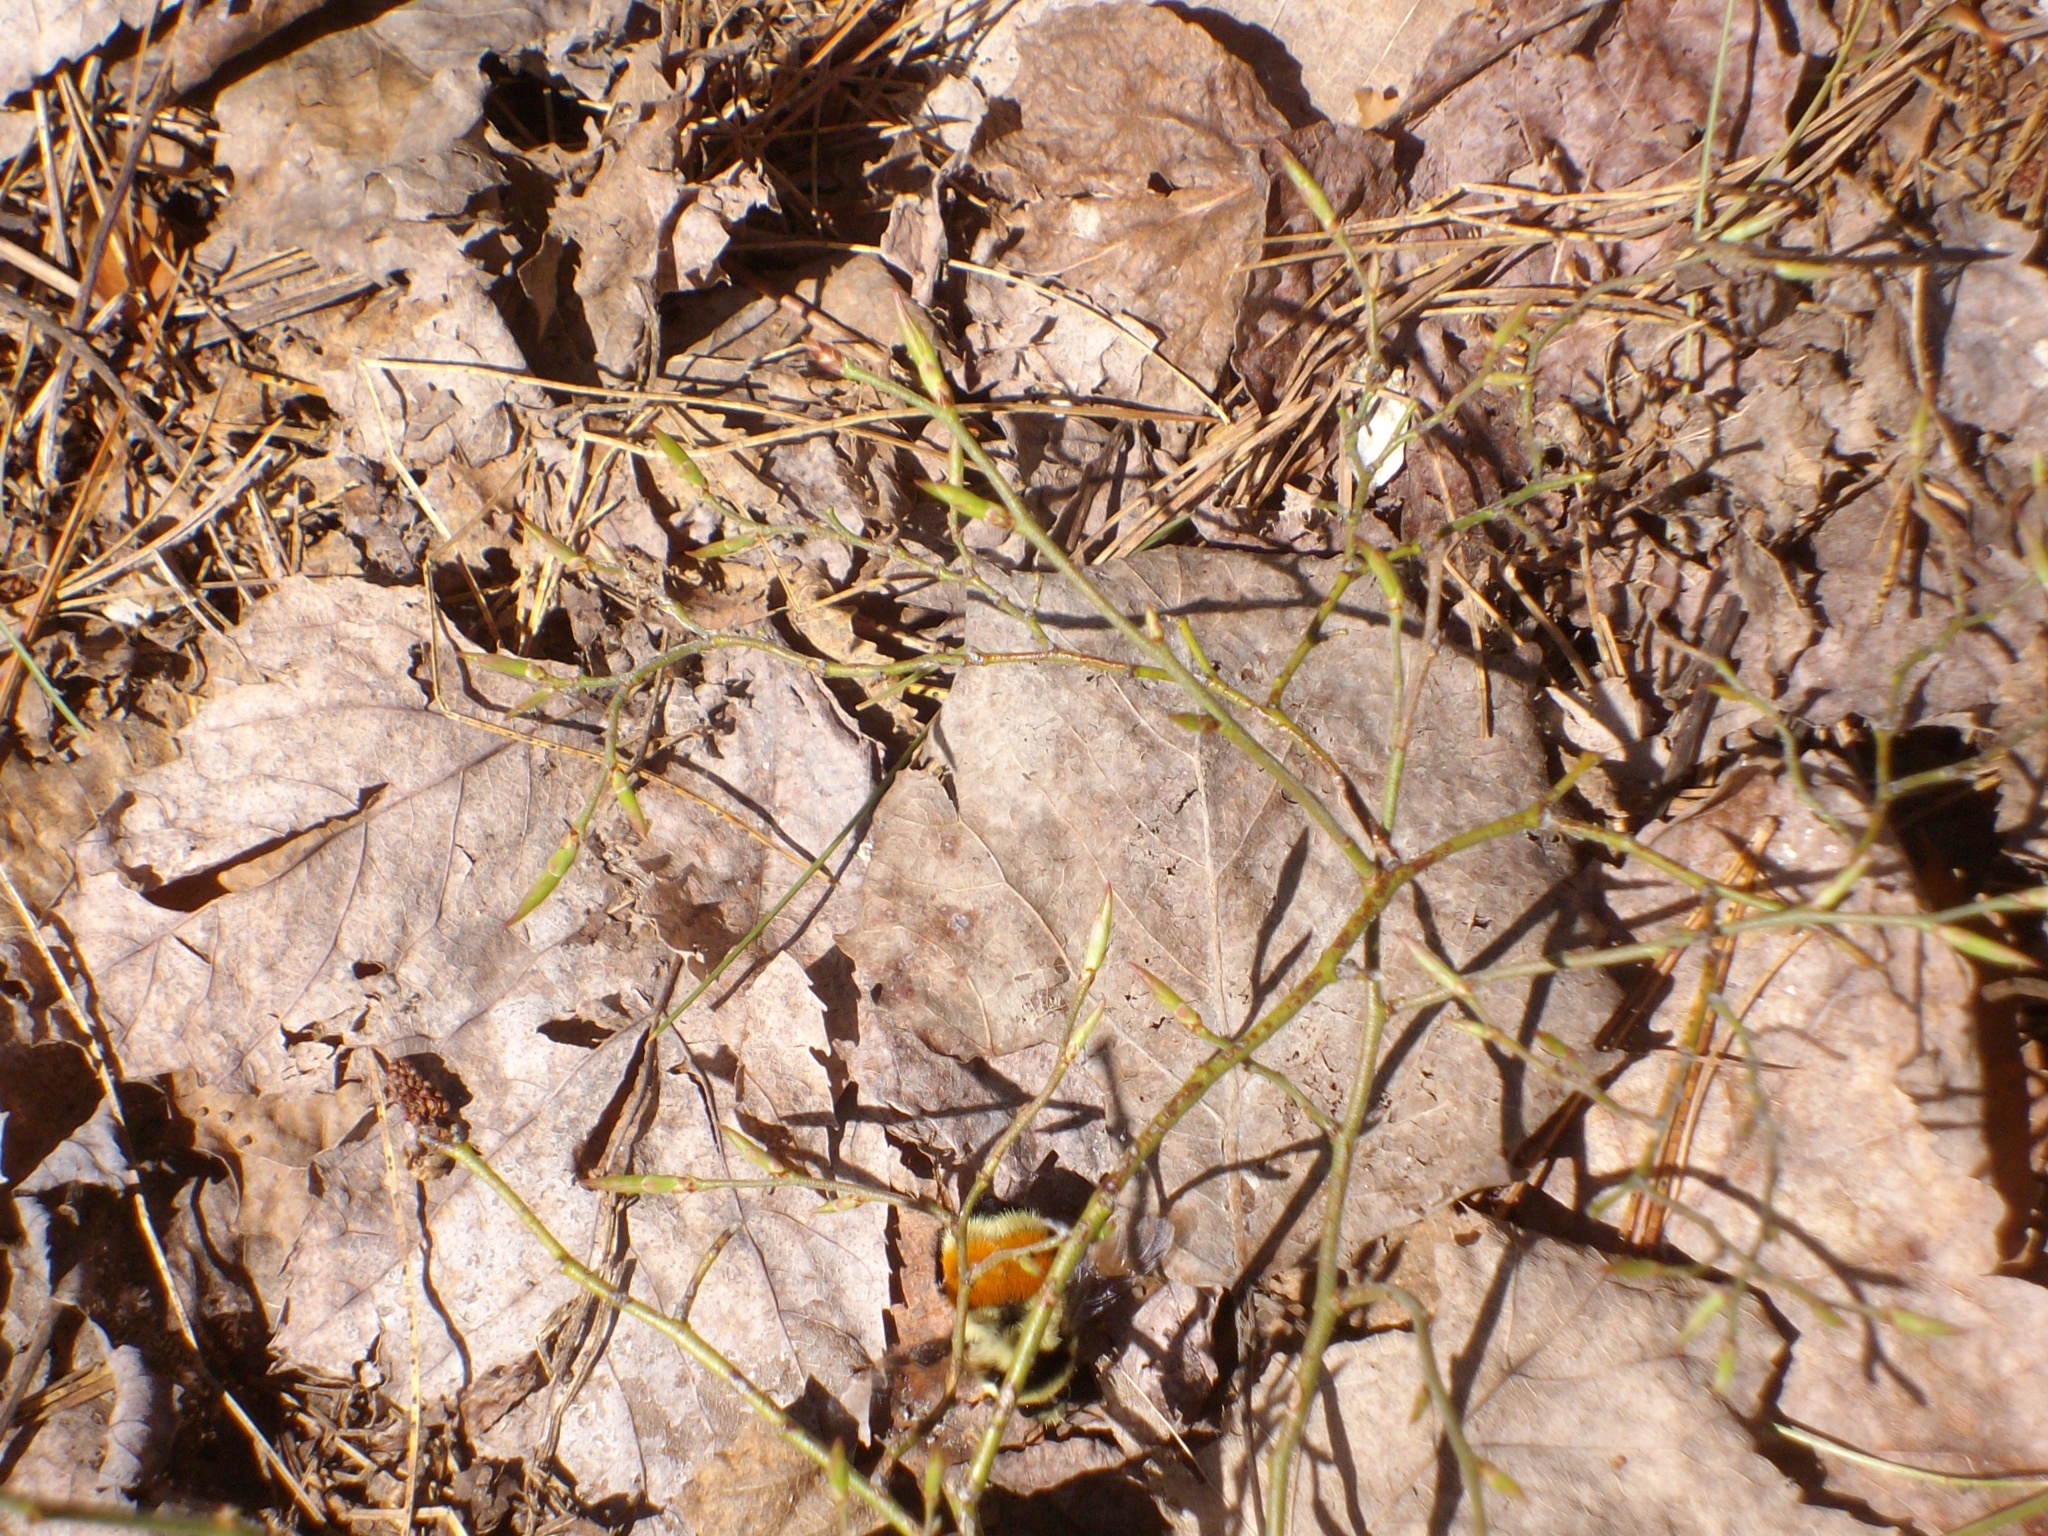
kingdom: Animalia
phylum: Arthropoda
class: Insecta
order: Hymenoptera
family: Apidae
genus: Bombus
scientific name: Bombus ternarius
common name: Tri-colored bumble bee
